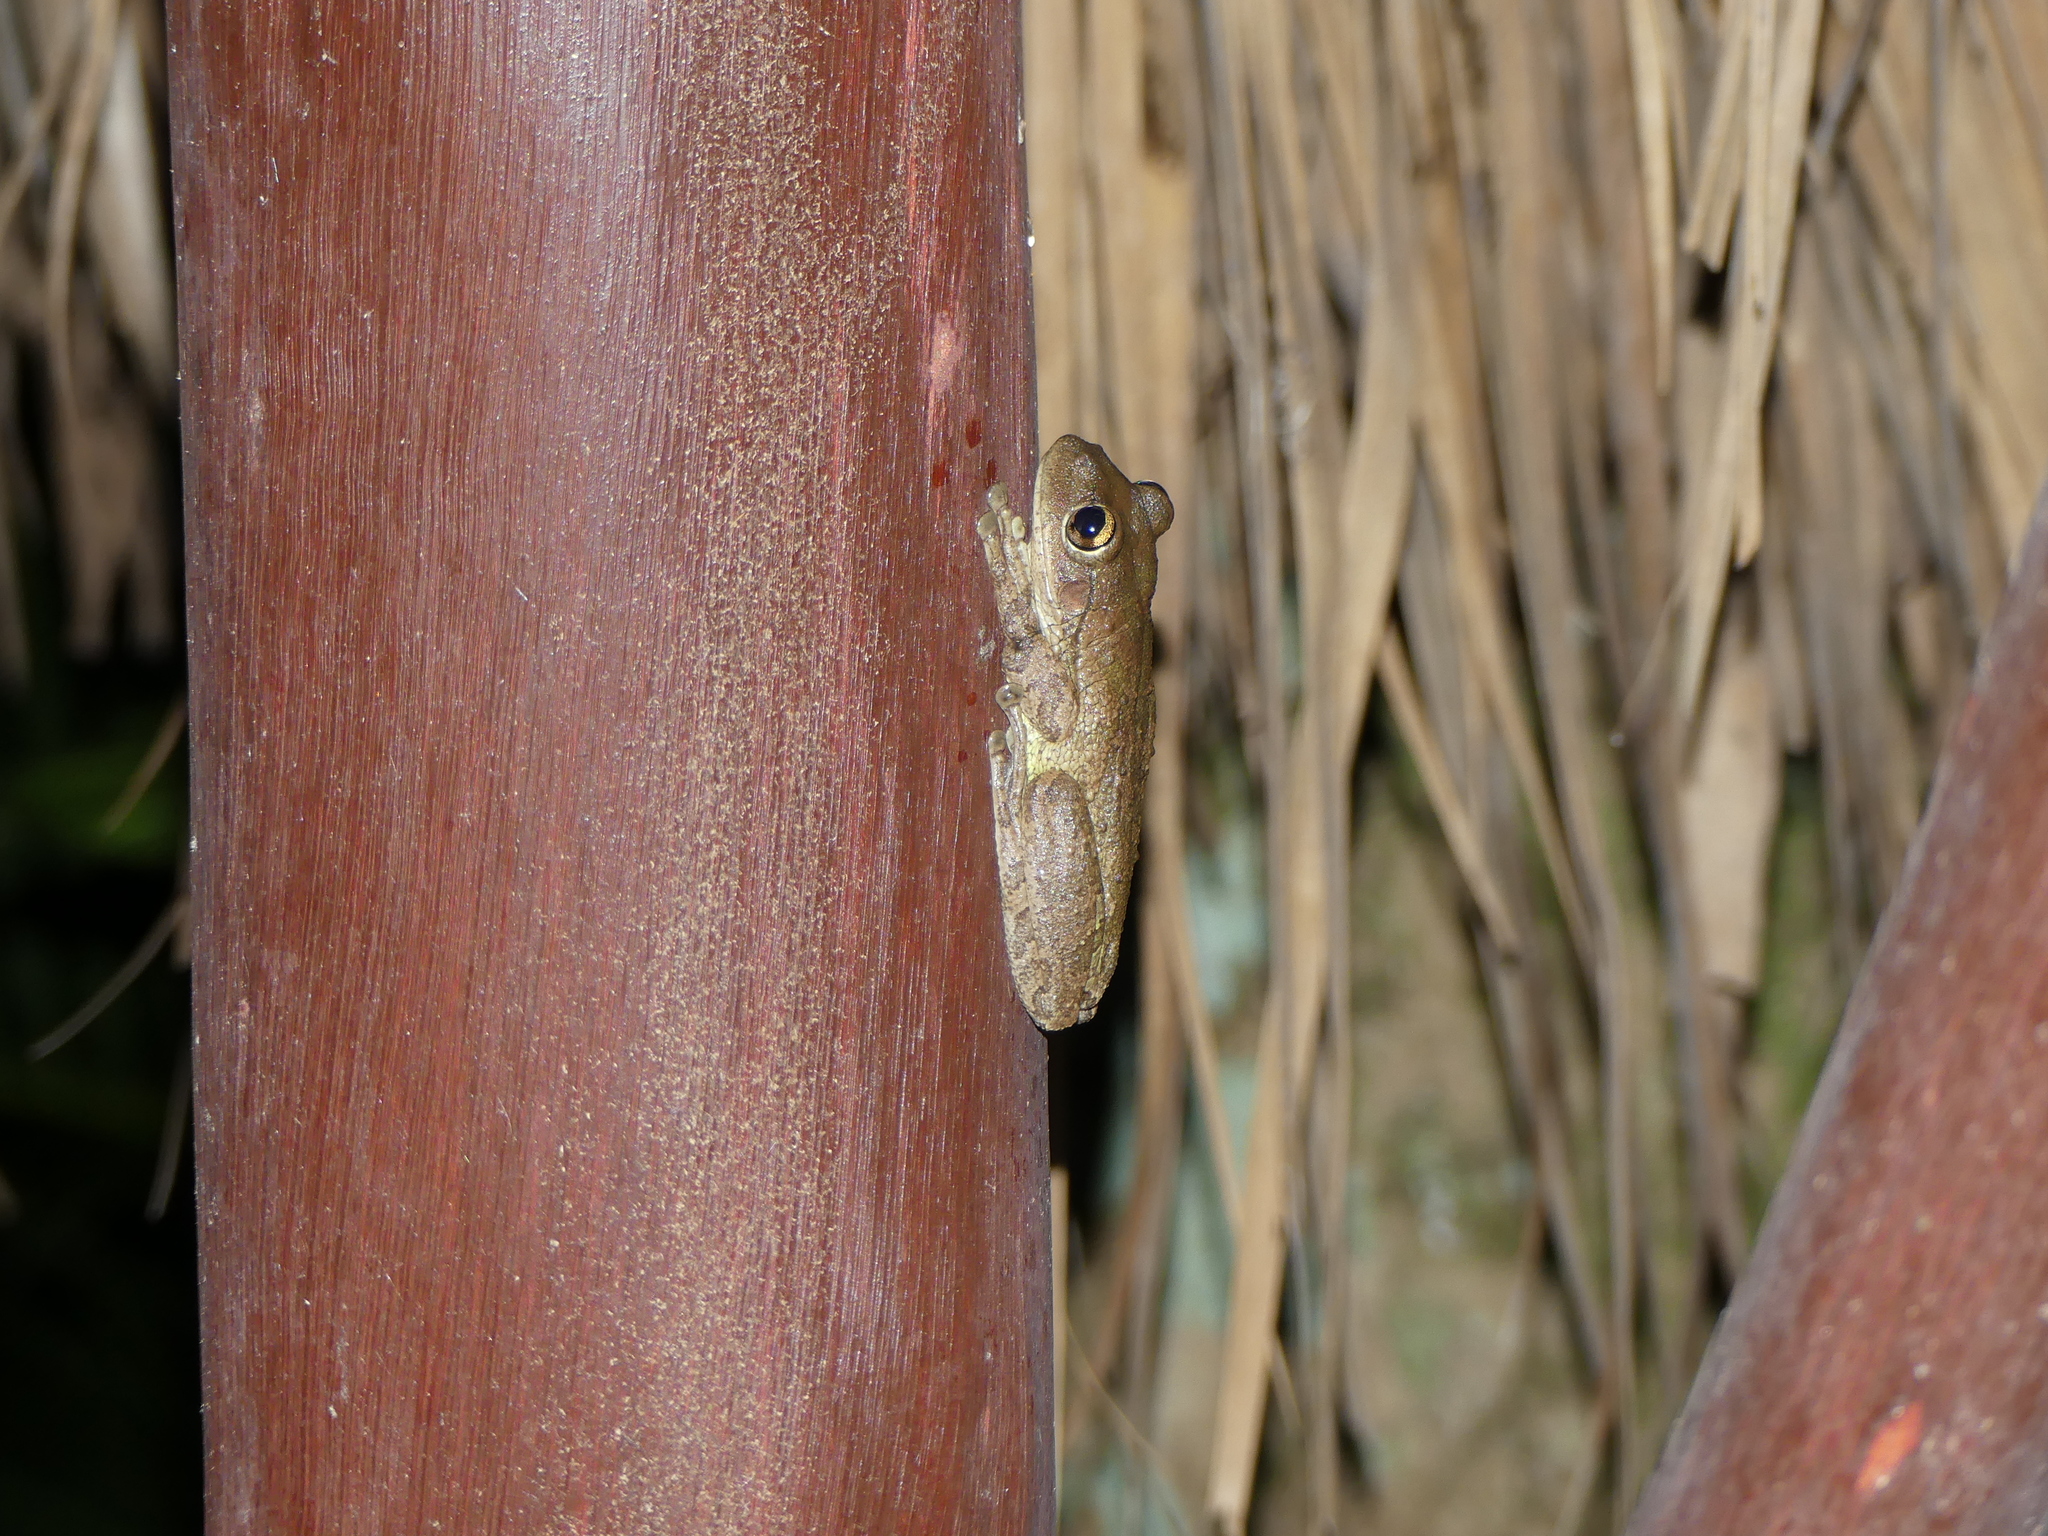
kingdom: Animalia
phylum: Chordata
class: Amphibia
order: Anura
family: Hylidae
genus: Osteopilus
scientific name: Osteopilus septentrionalis
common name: Cuban treefrog
